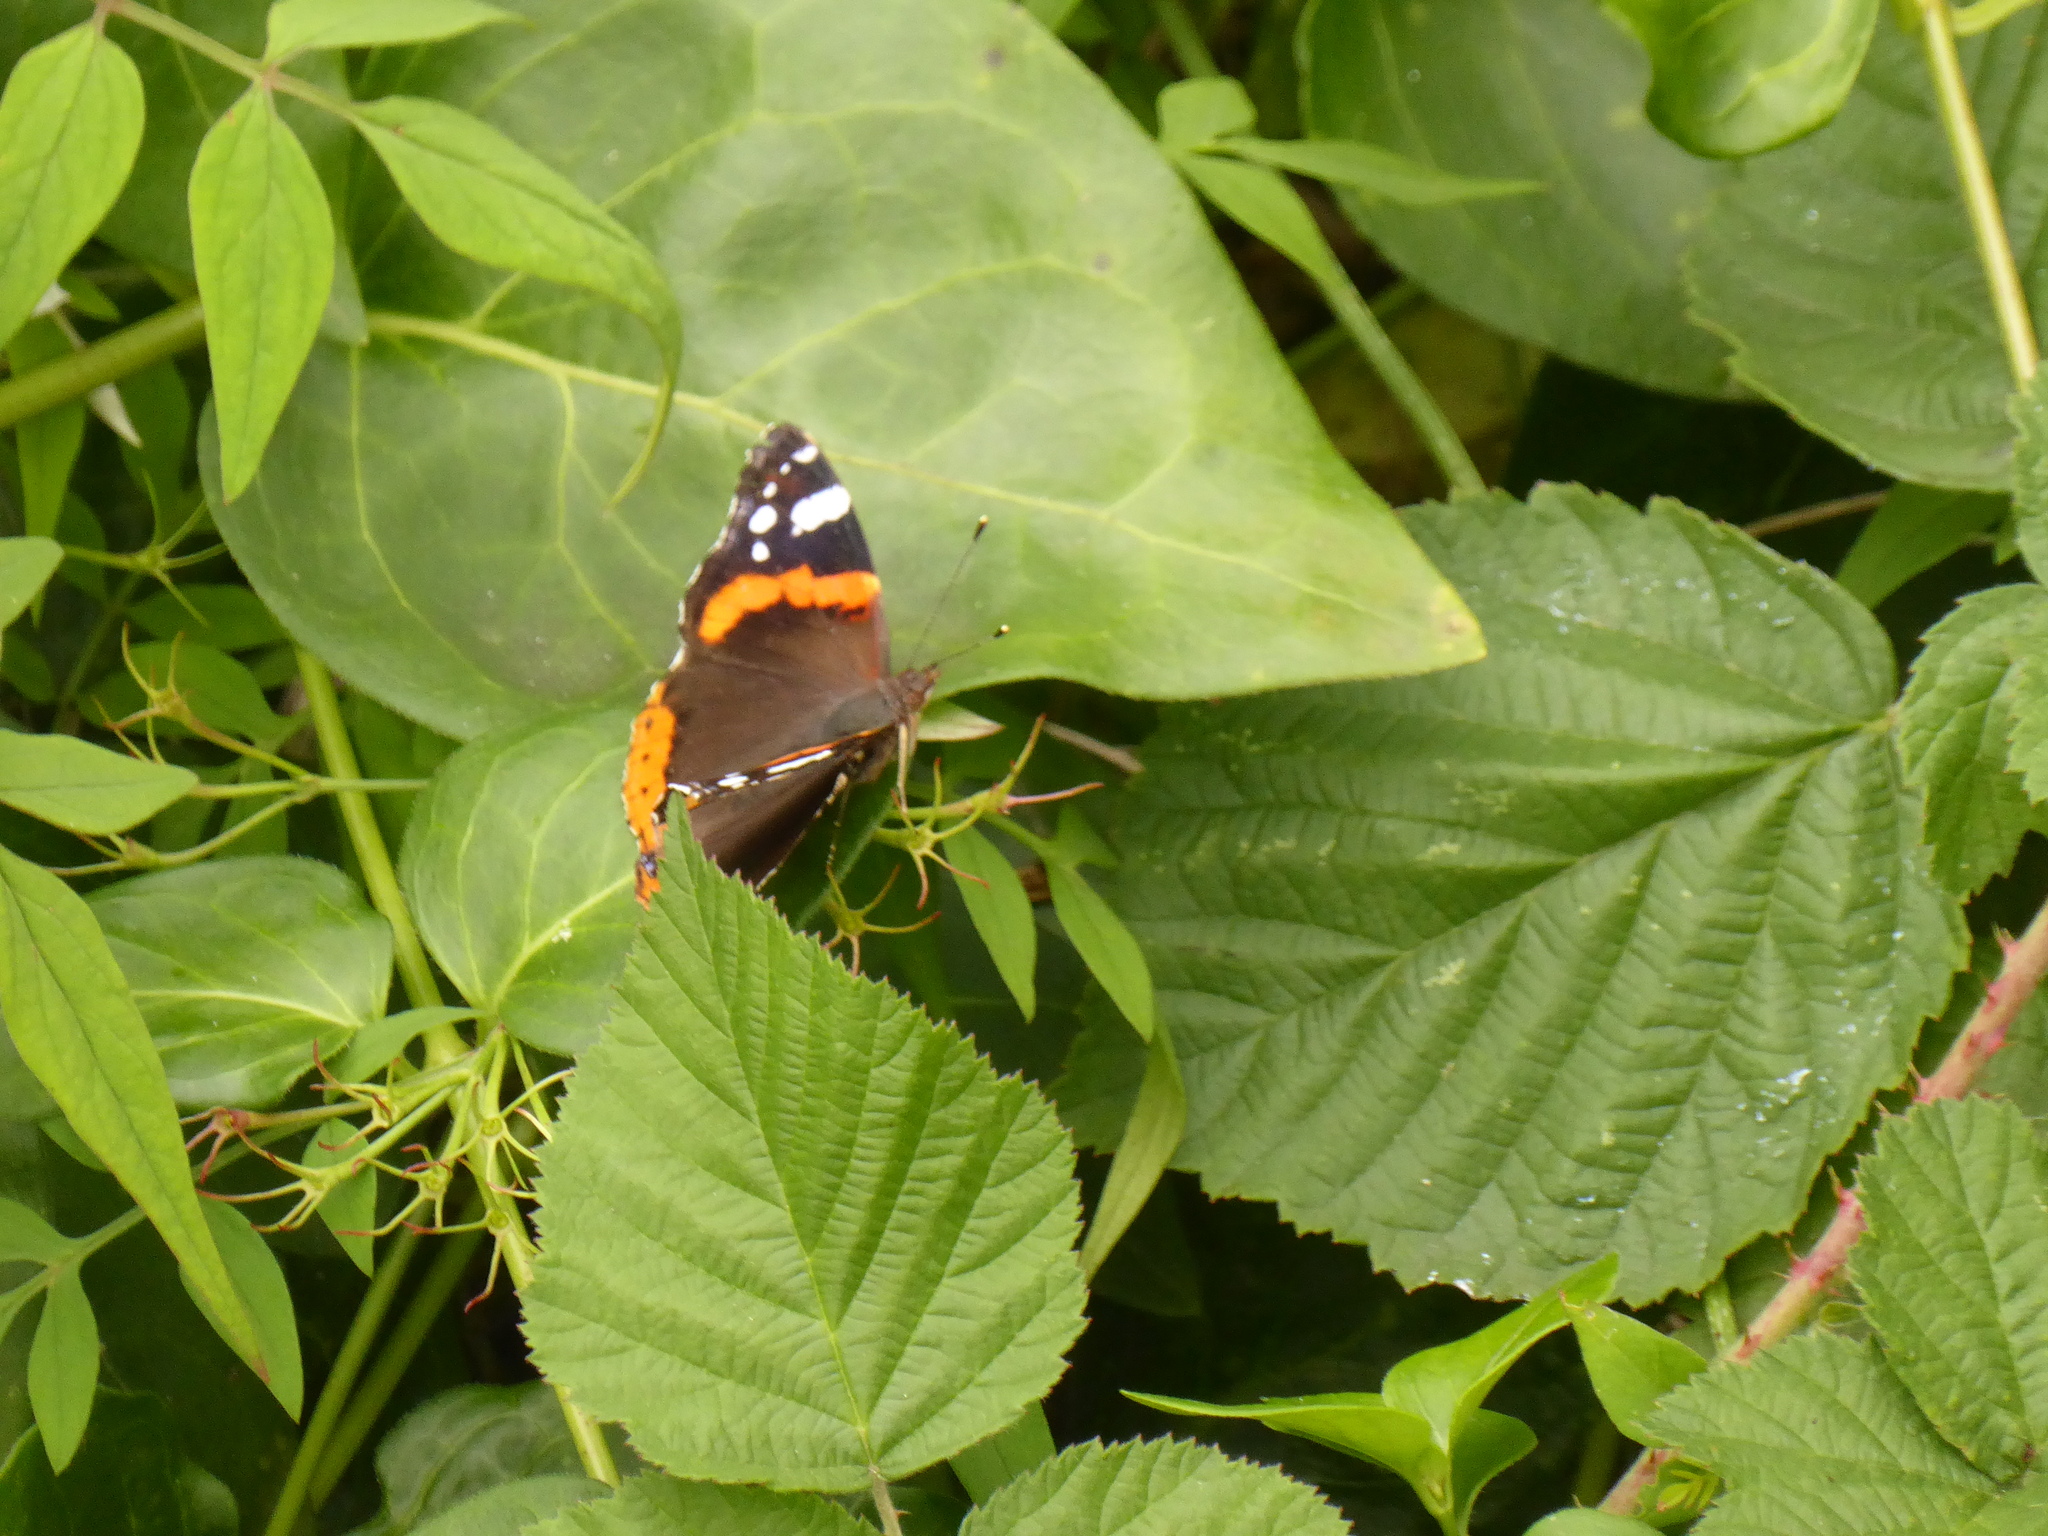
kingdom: Animalia
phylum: Arthropoda
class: Insecta
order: Lepidoptera
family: Nymphalidae
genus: Vanessa
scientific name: Vanessa atalanta
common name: Red admiral
